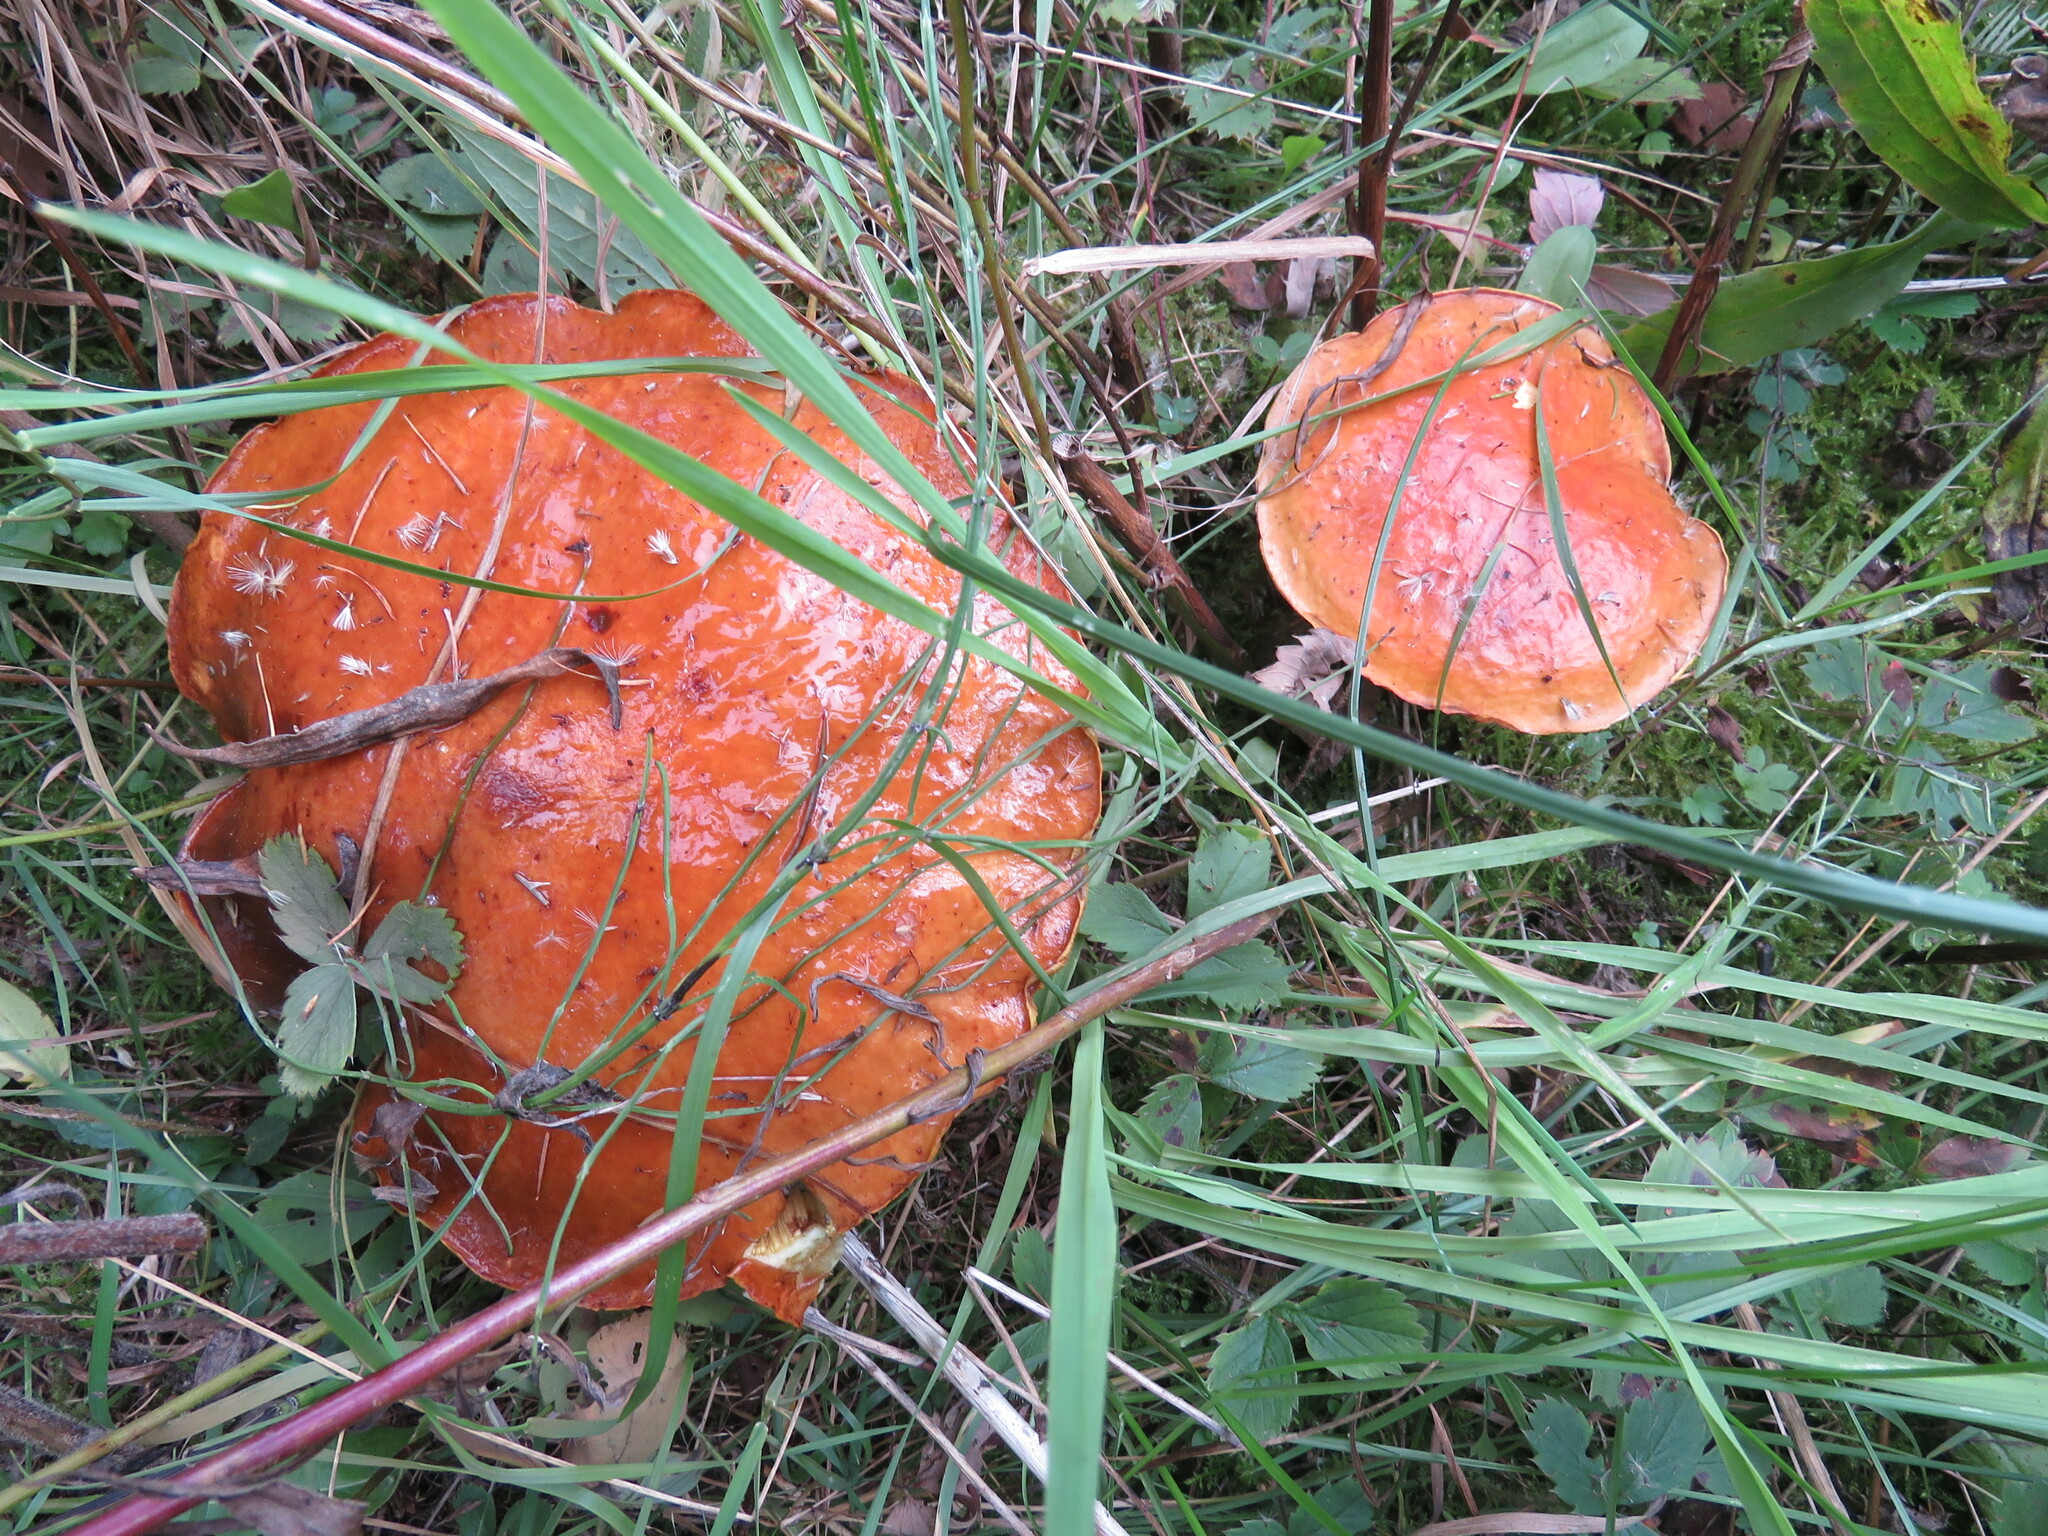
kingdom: Fungi
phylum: Basidiomycota
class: Agaricomycetes
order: Boletales
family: Suillaceae
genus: Suillus
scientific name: Suillus grevillei
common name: Larch bolete
